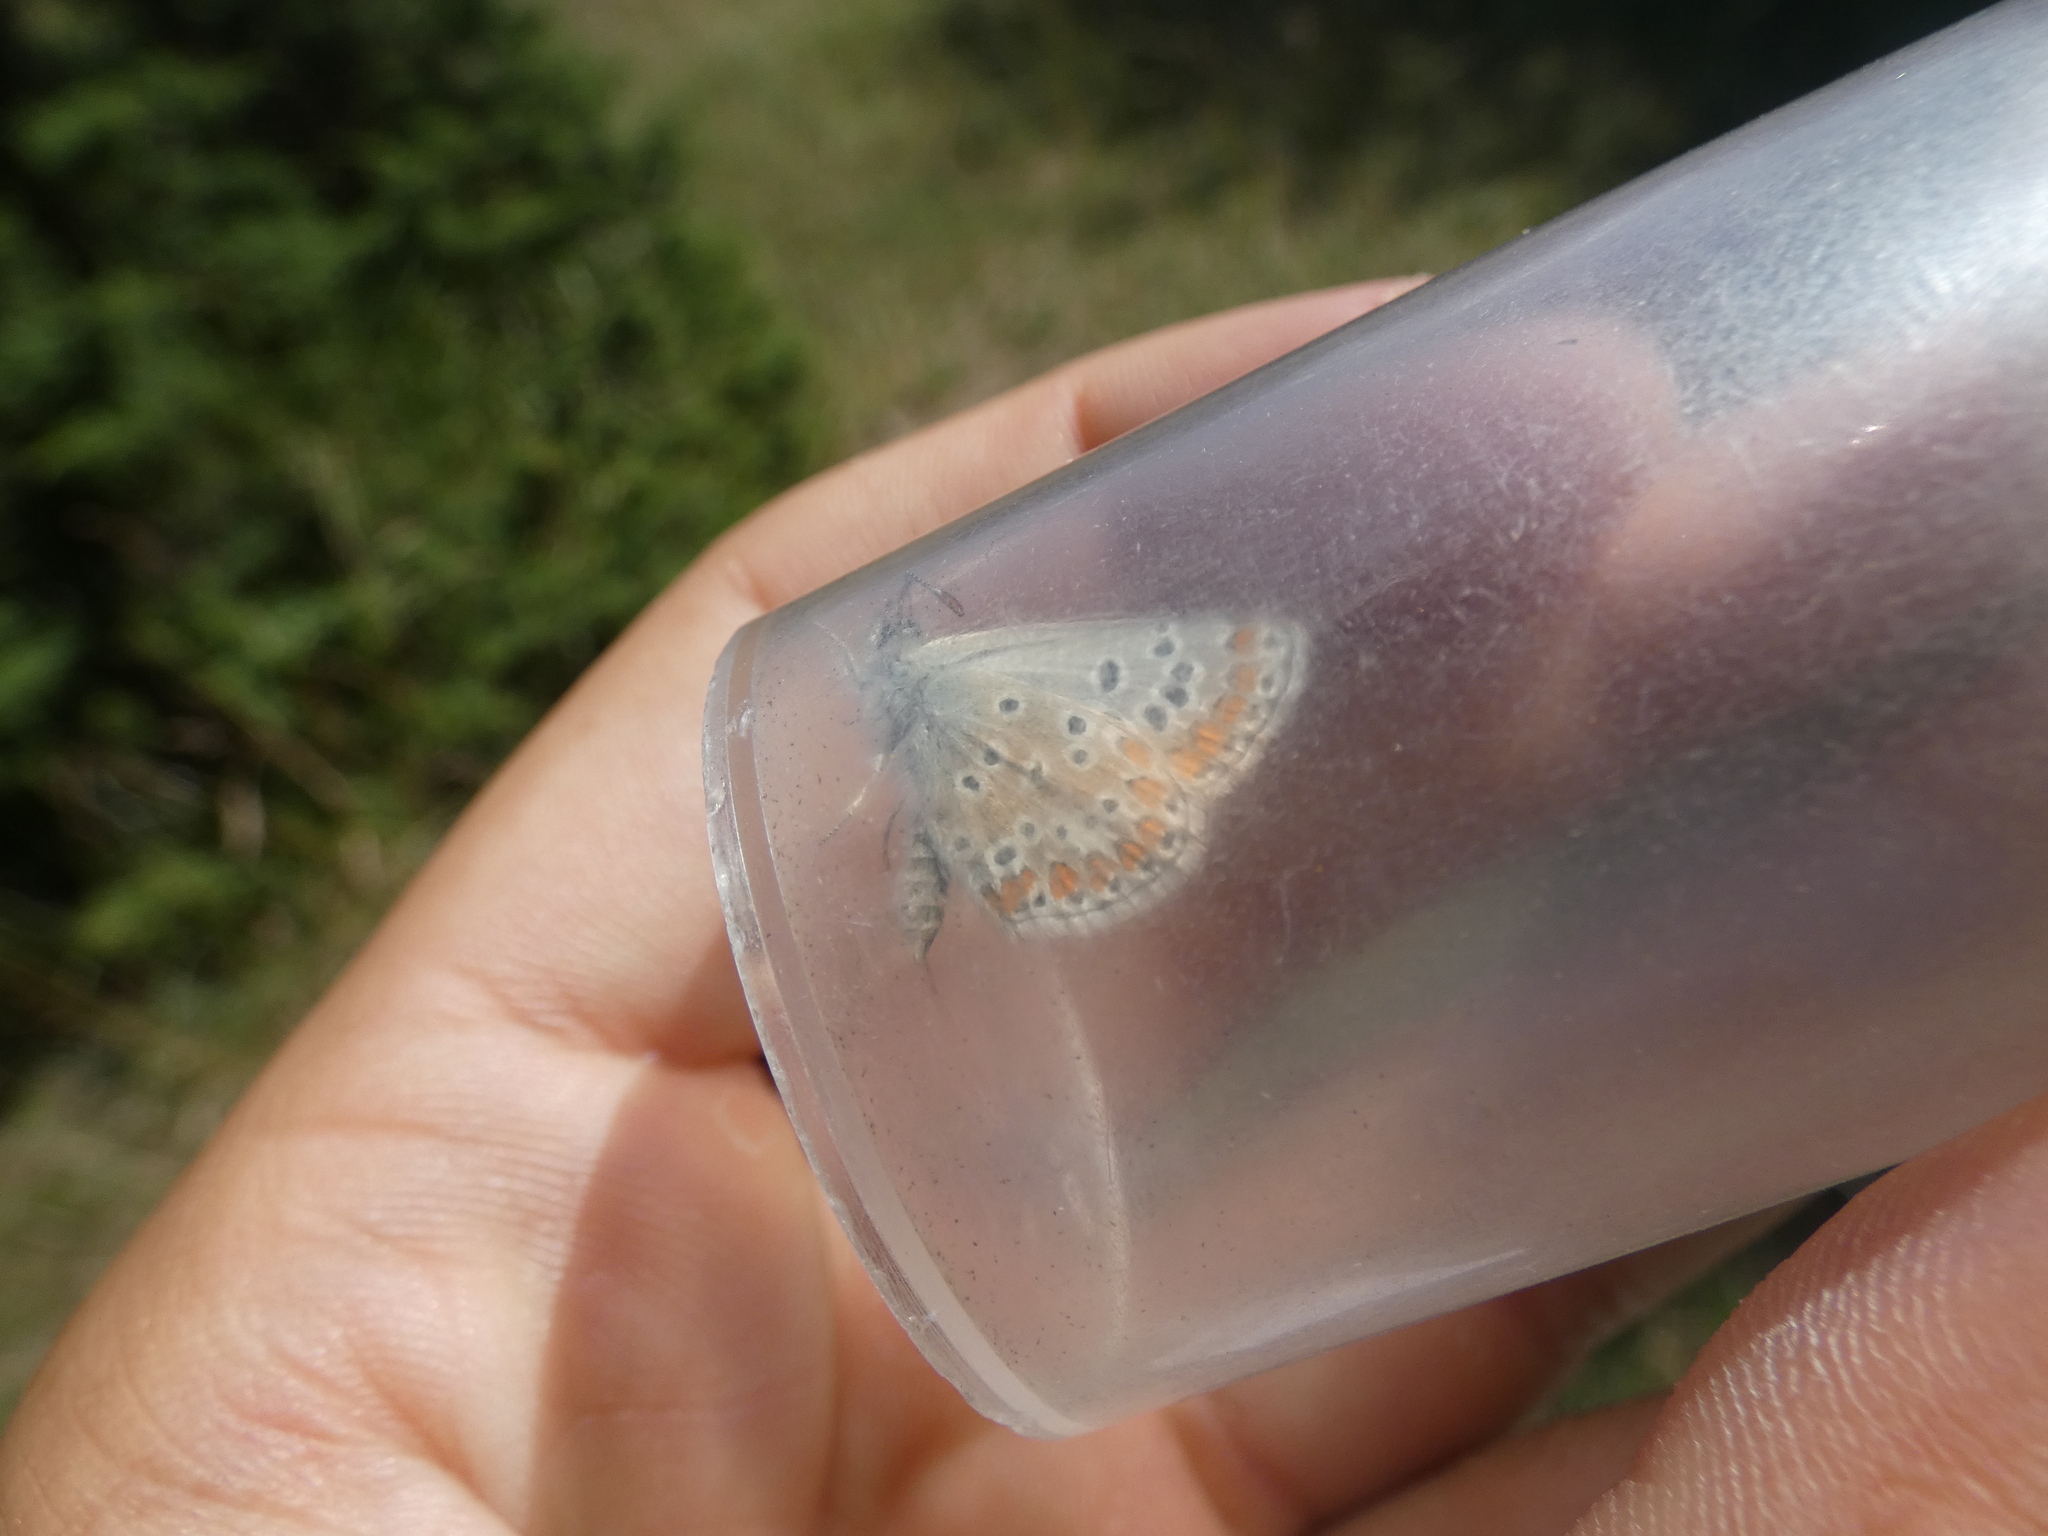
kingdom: Animalia
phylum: Arthropoda
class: Insecta
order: Lepidoptera
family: Lycaenidae
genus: Aricia
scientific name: Aricia agestis
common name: Brown argus
